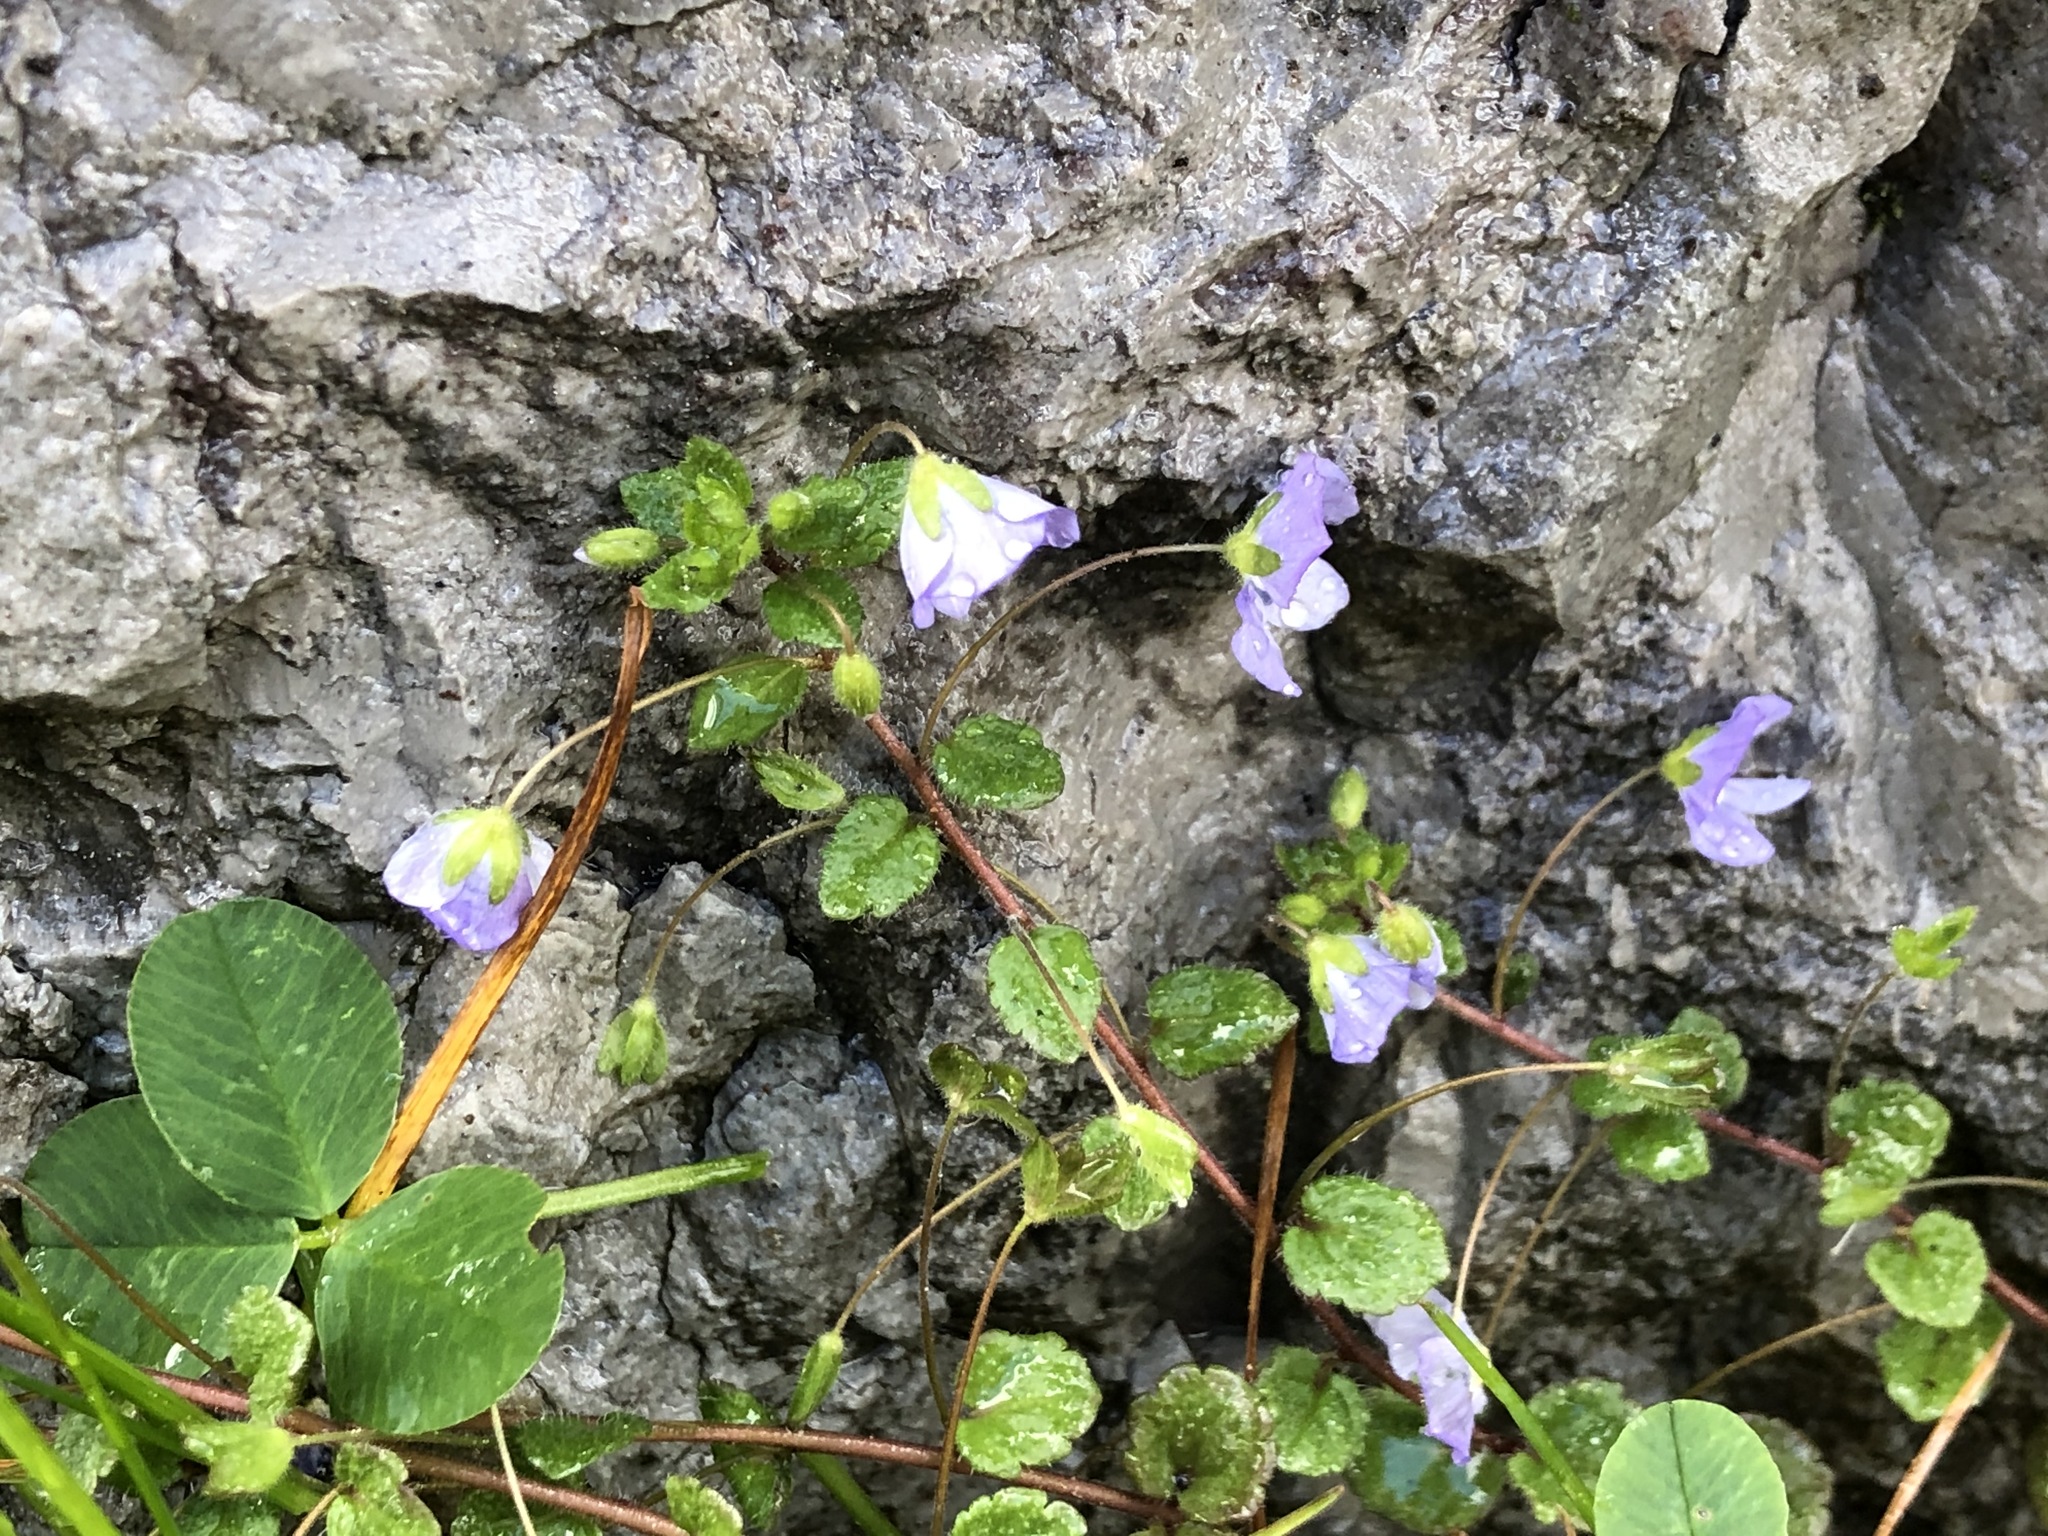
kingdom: Plantae
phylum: Tracheophyta
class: Magnoliopsida
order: Lamiales
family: Plantaginaceae
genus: Veronica
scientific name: Veronica filiformis
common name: Slender speedwell
